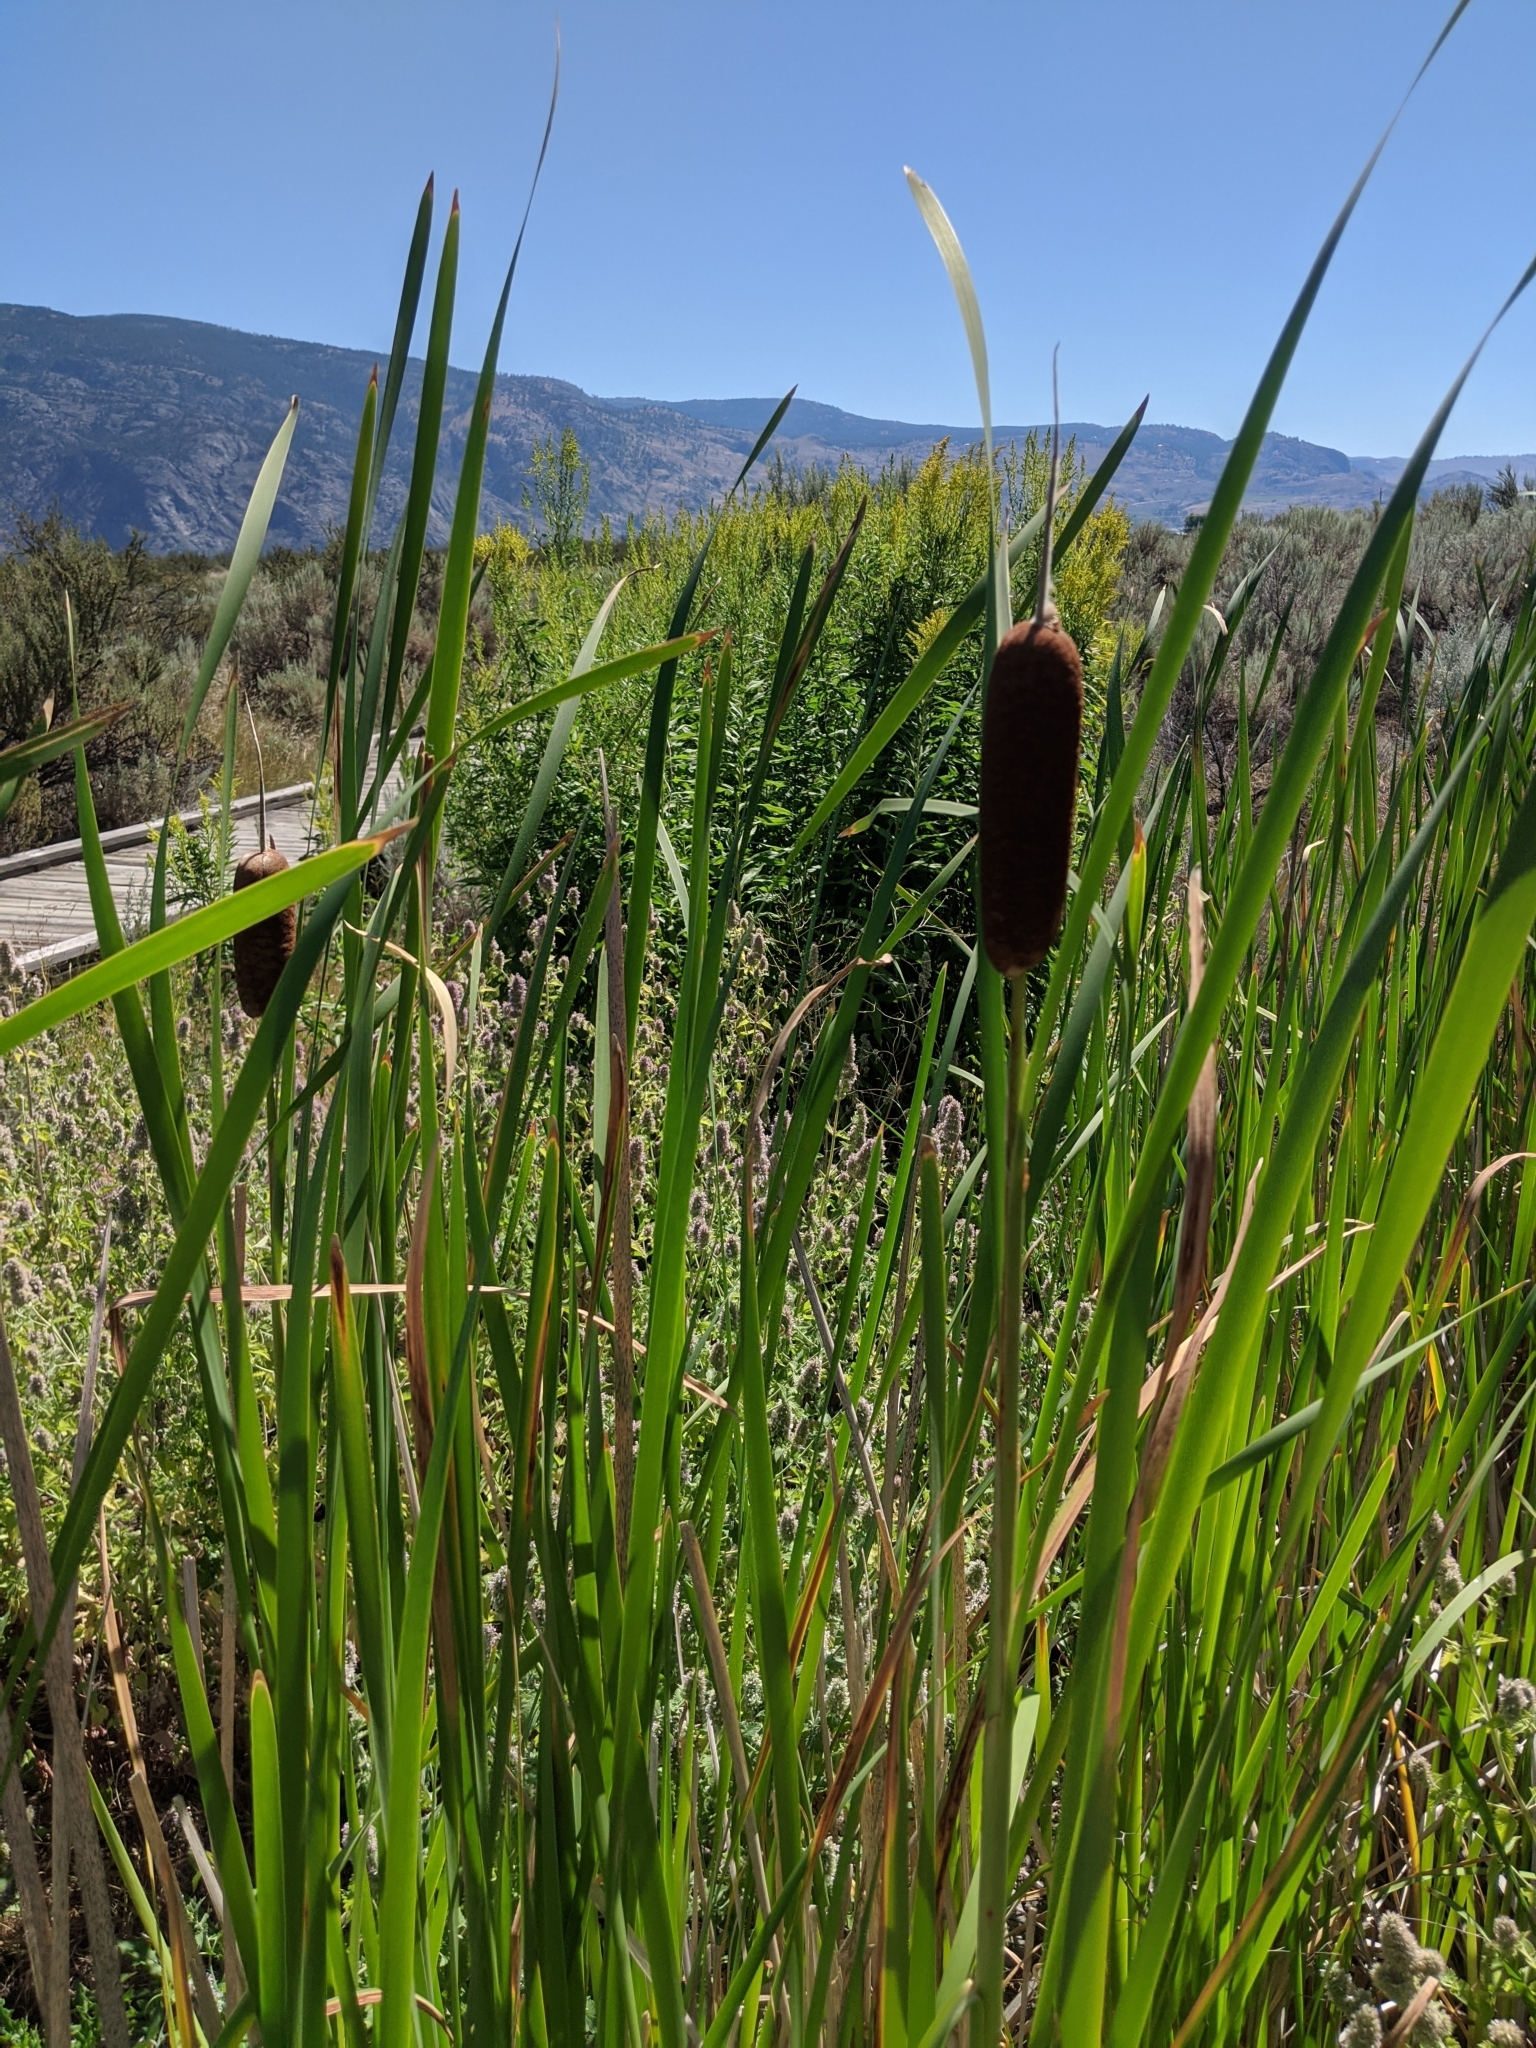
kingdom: Plantae
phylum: Tracheophyta
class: Liliopsida
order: Poales
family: Typhaceae
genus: Typha
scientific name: Typha latifolia
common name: Broadleaf cattail
